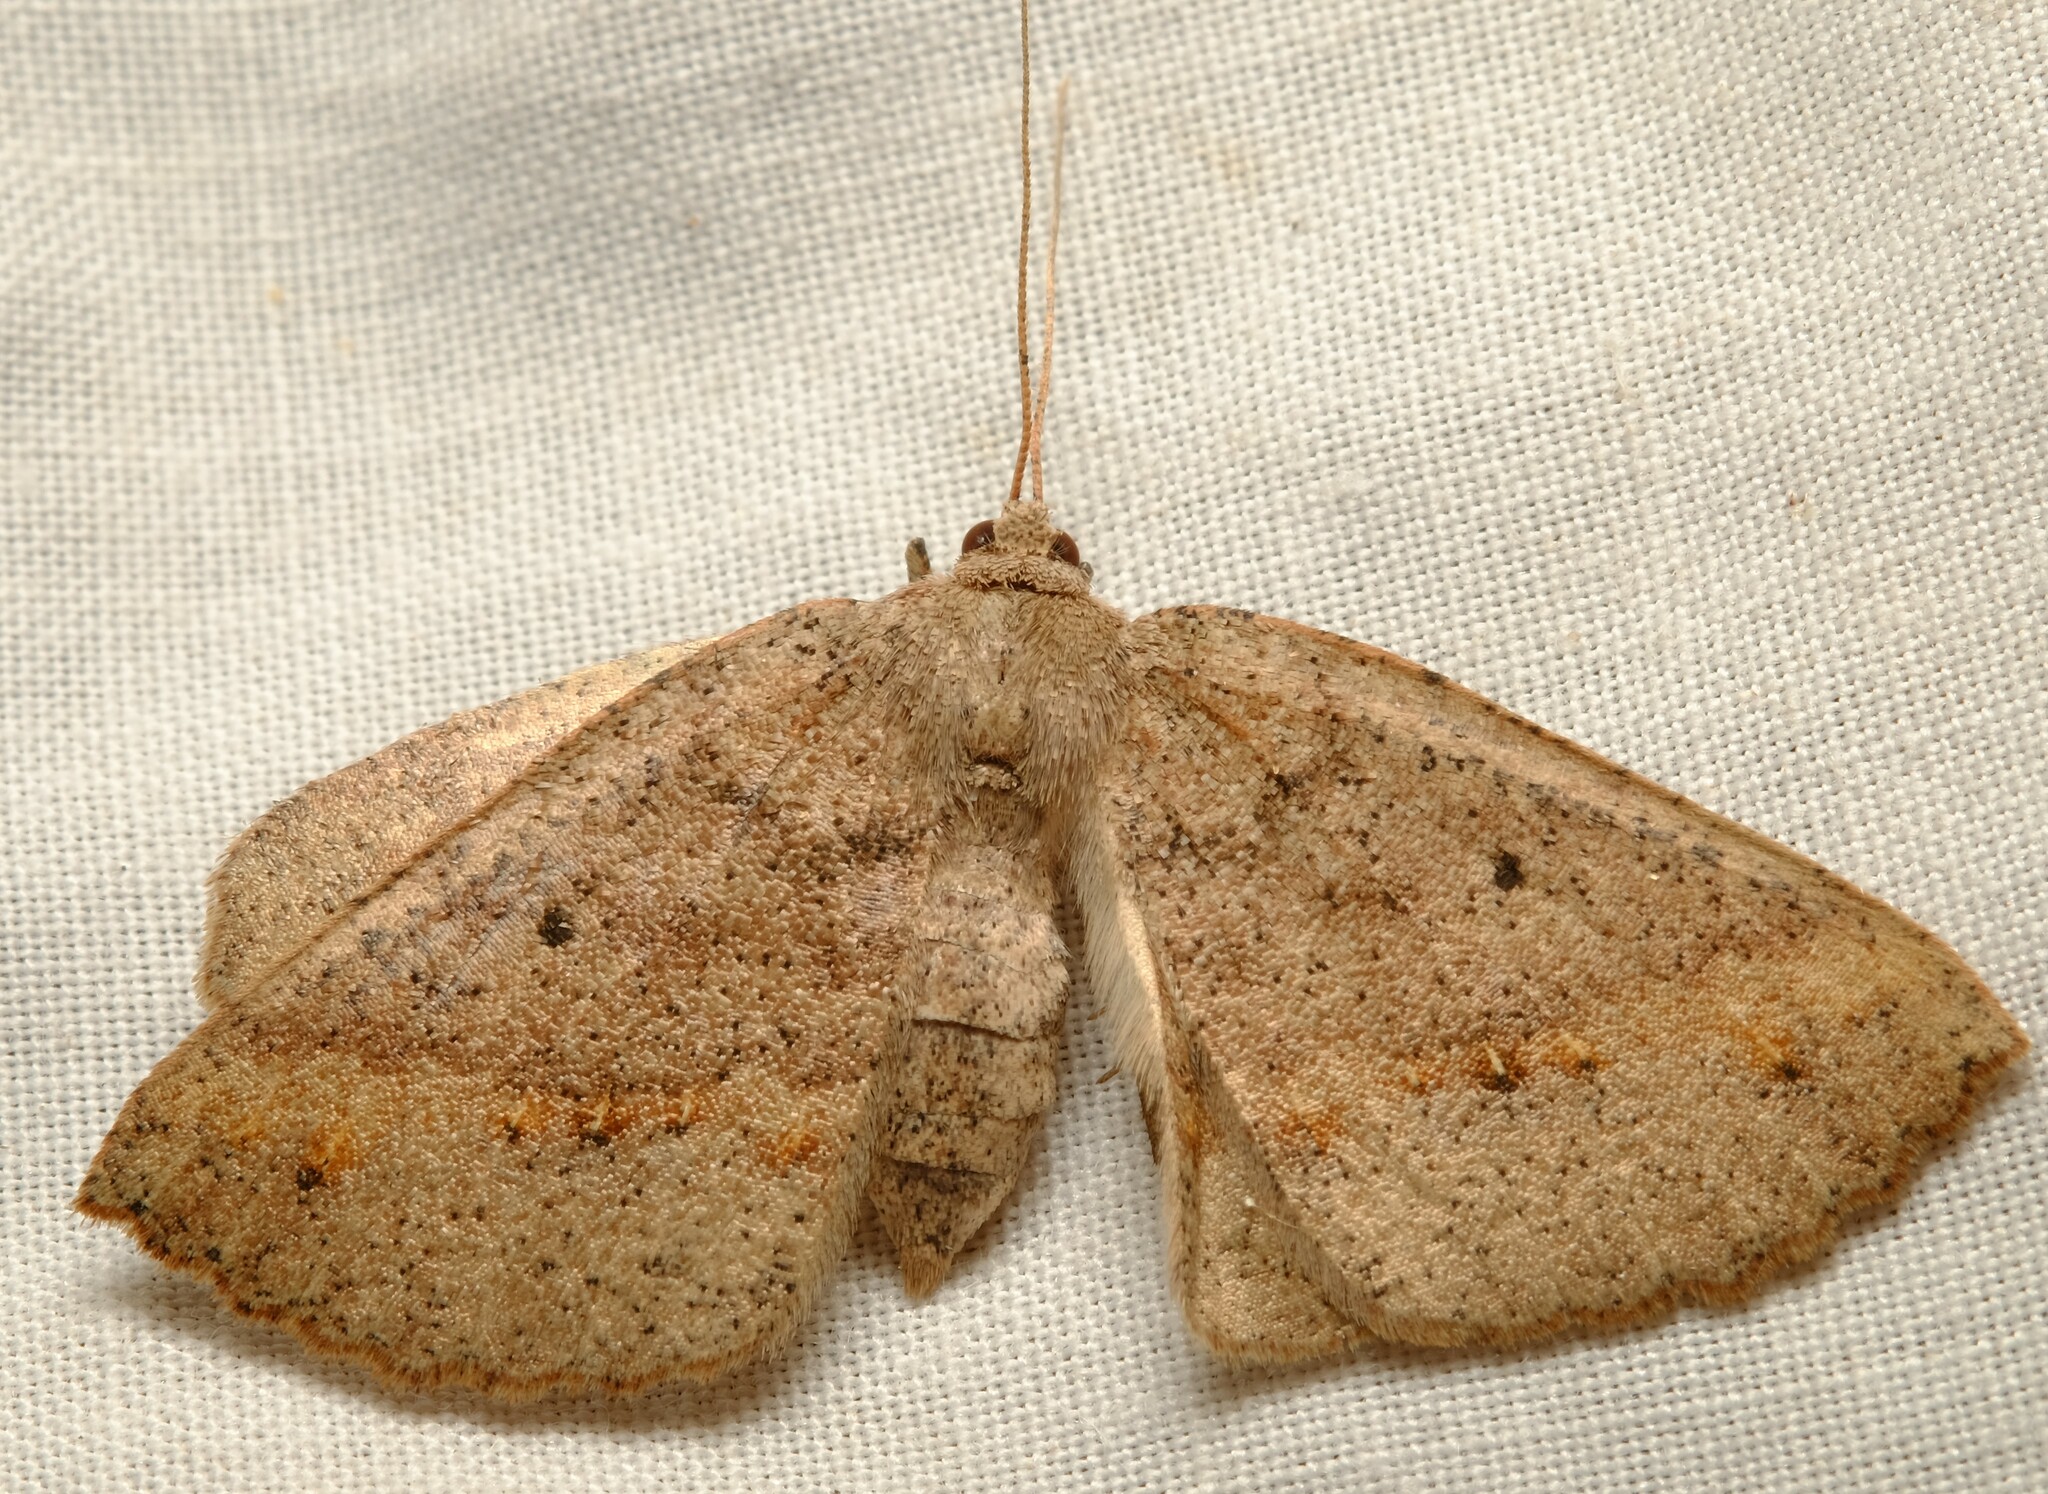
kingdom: Animalia
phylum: Arthropoda
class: Insecta
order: Lepidoptera
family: Geometridae
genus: Xenomusa
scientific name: Xenomusa
